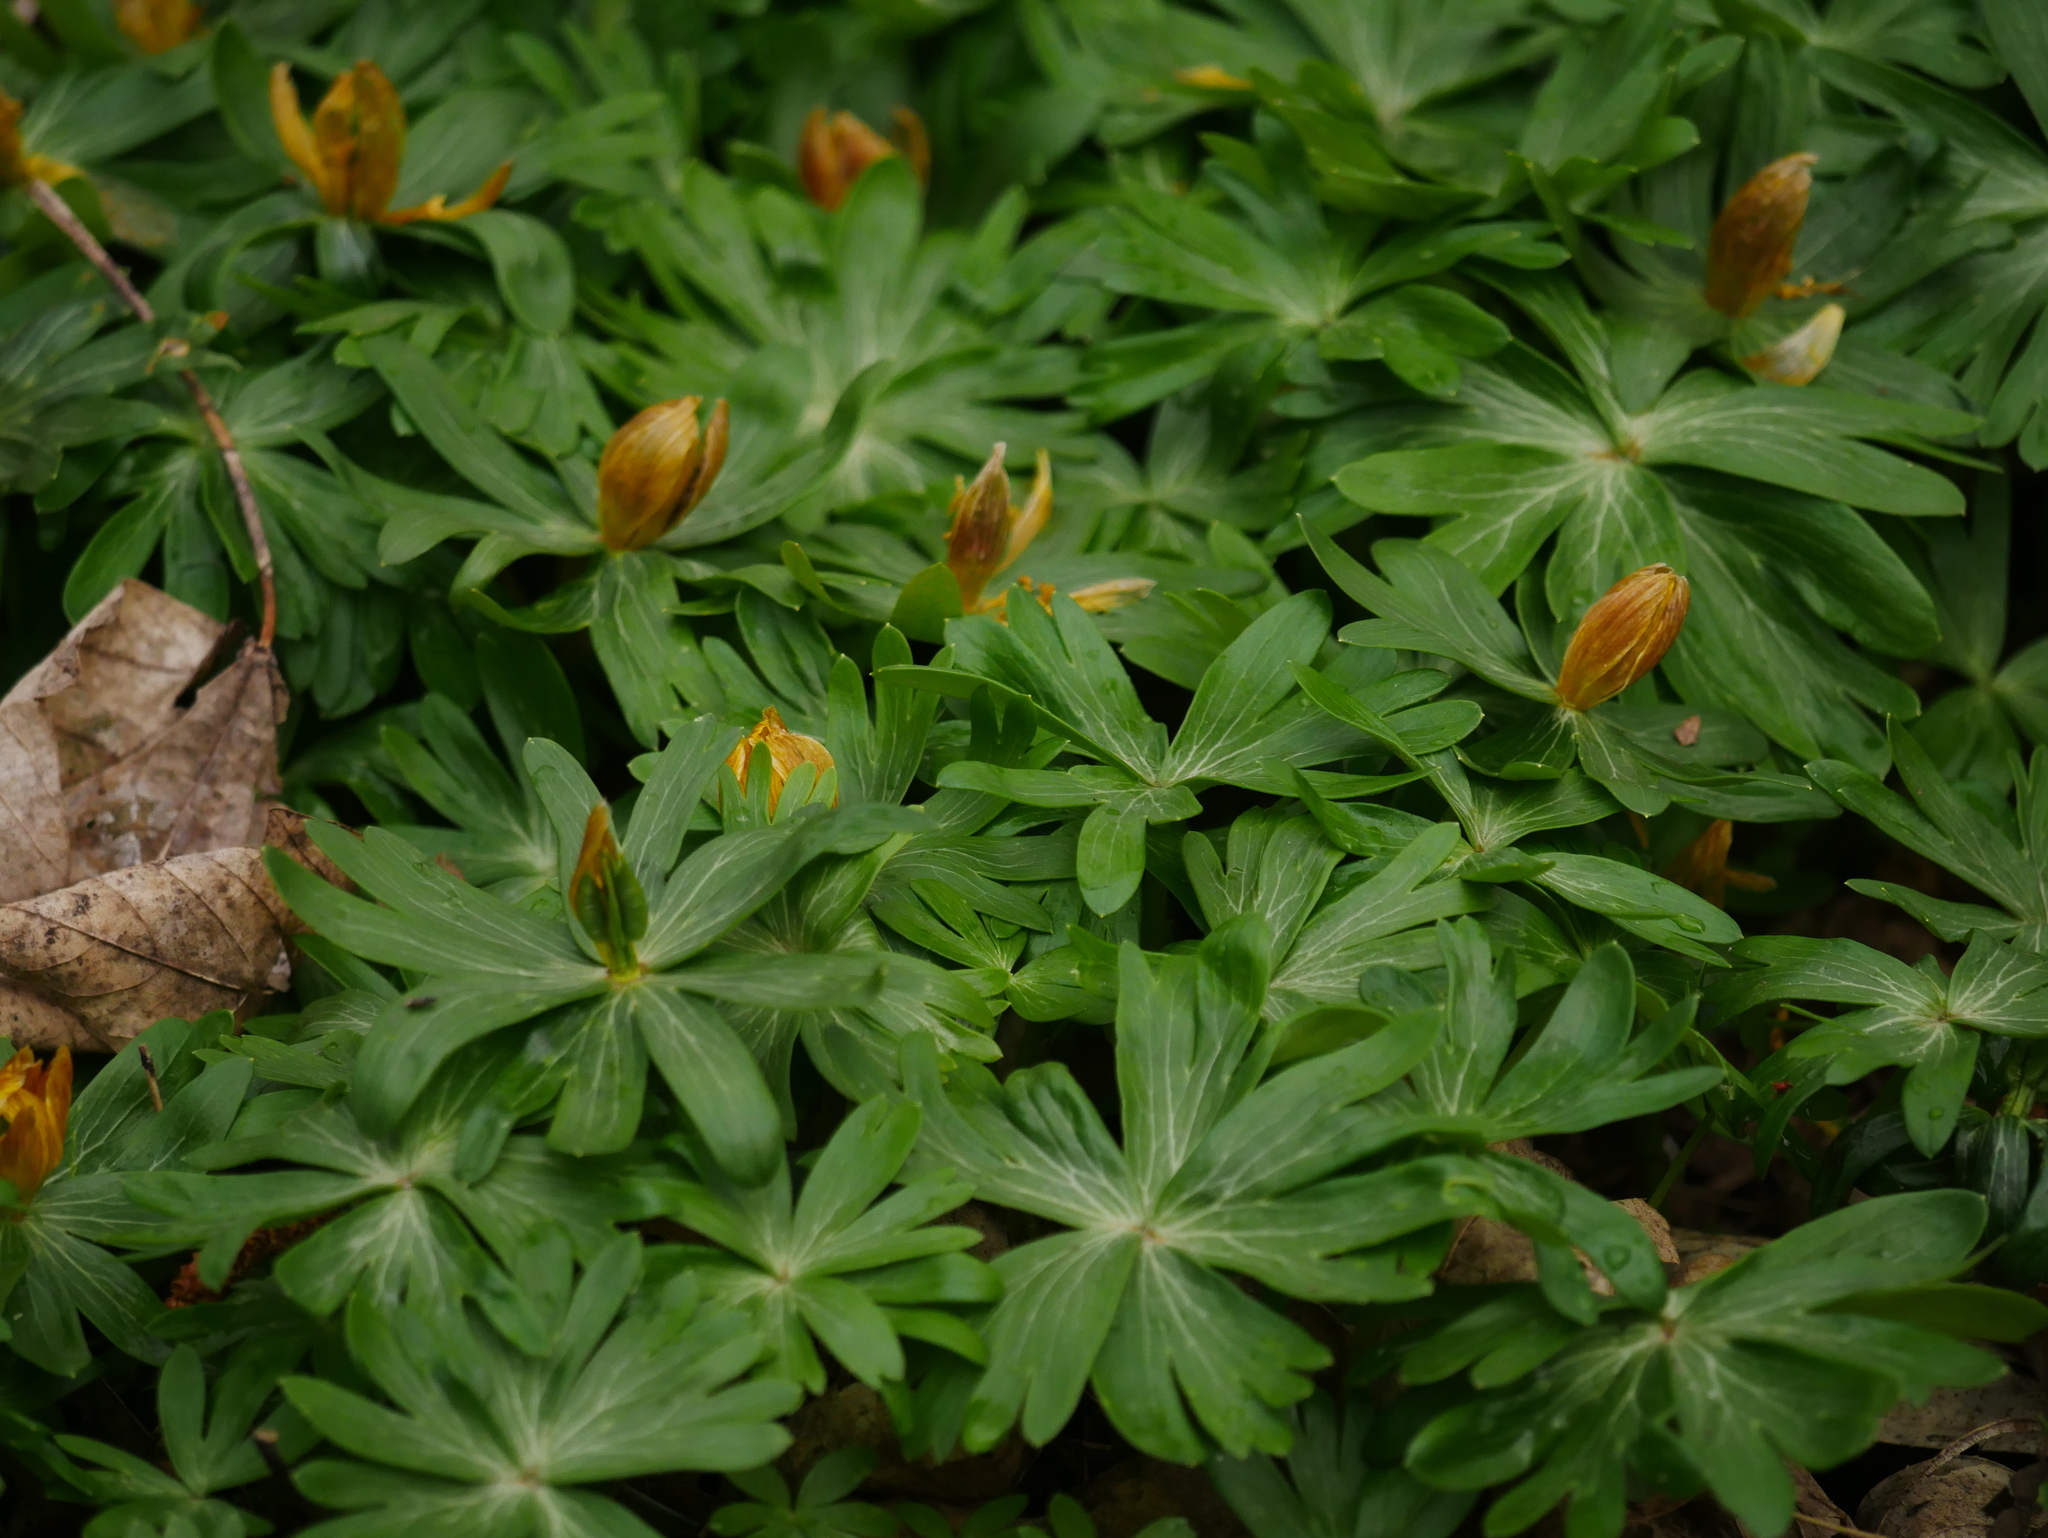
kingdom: Plantae
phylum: Tracheophyta
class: Magnoliopsida
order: Ranunculales
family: Ranunculaceae
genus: Eranthis
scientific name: Eranthis hyemalis
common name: Winter aconite
